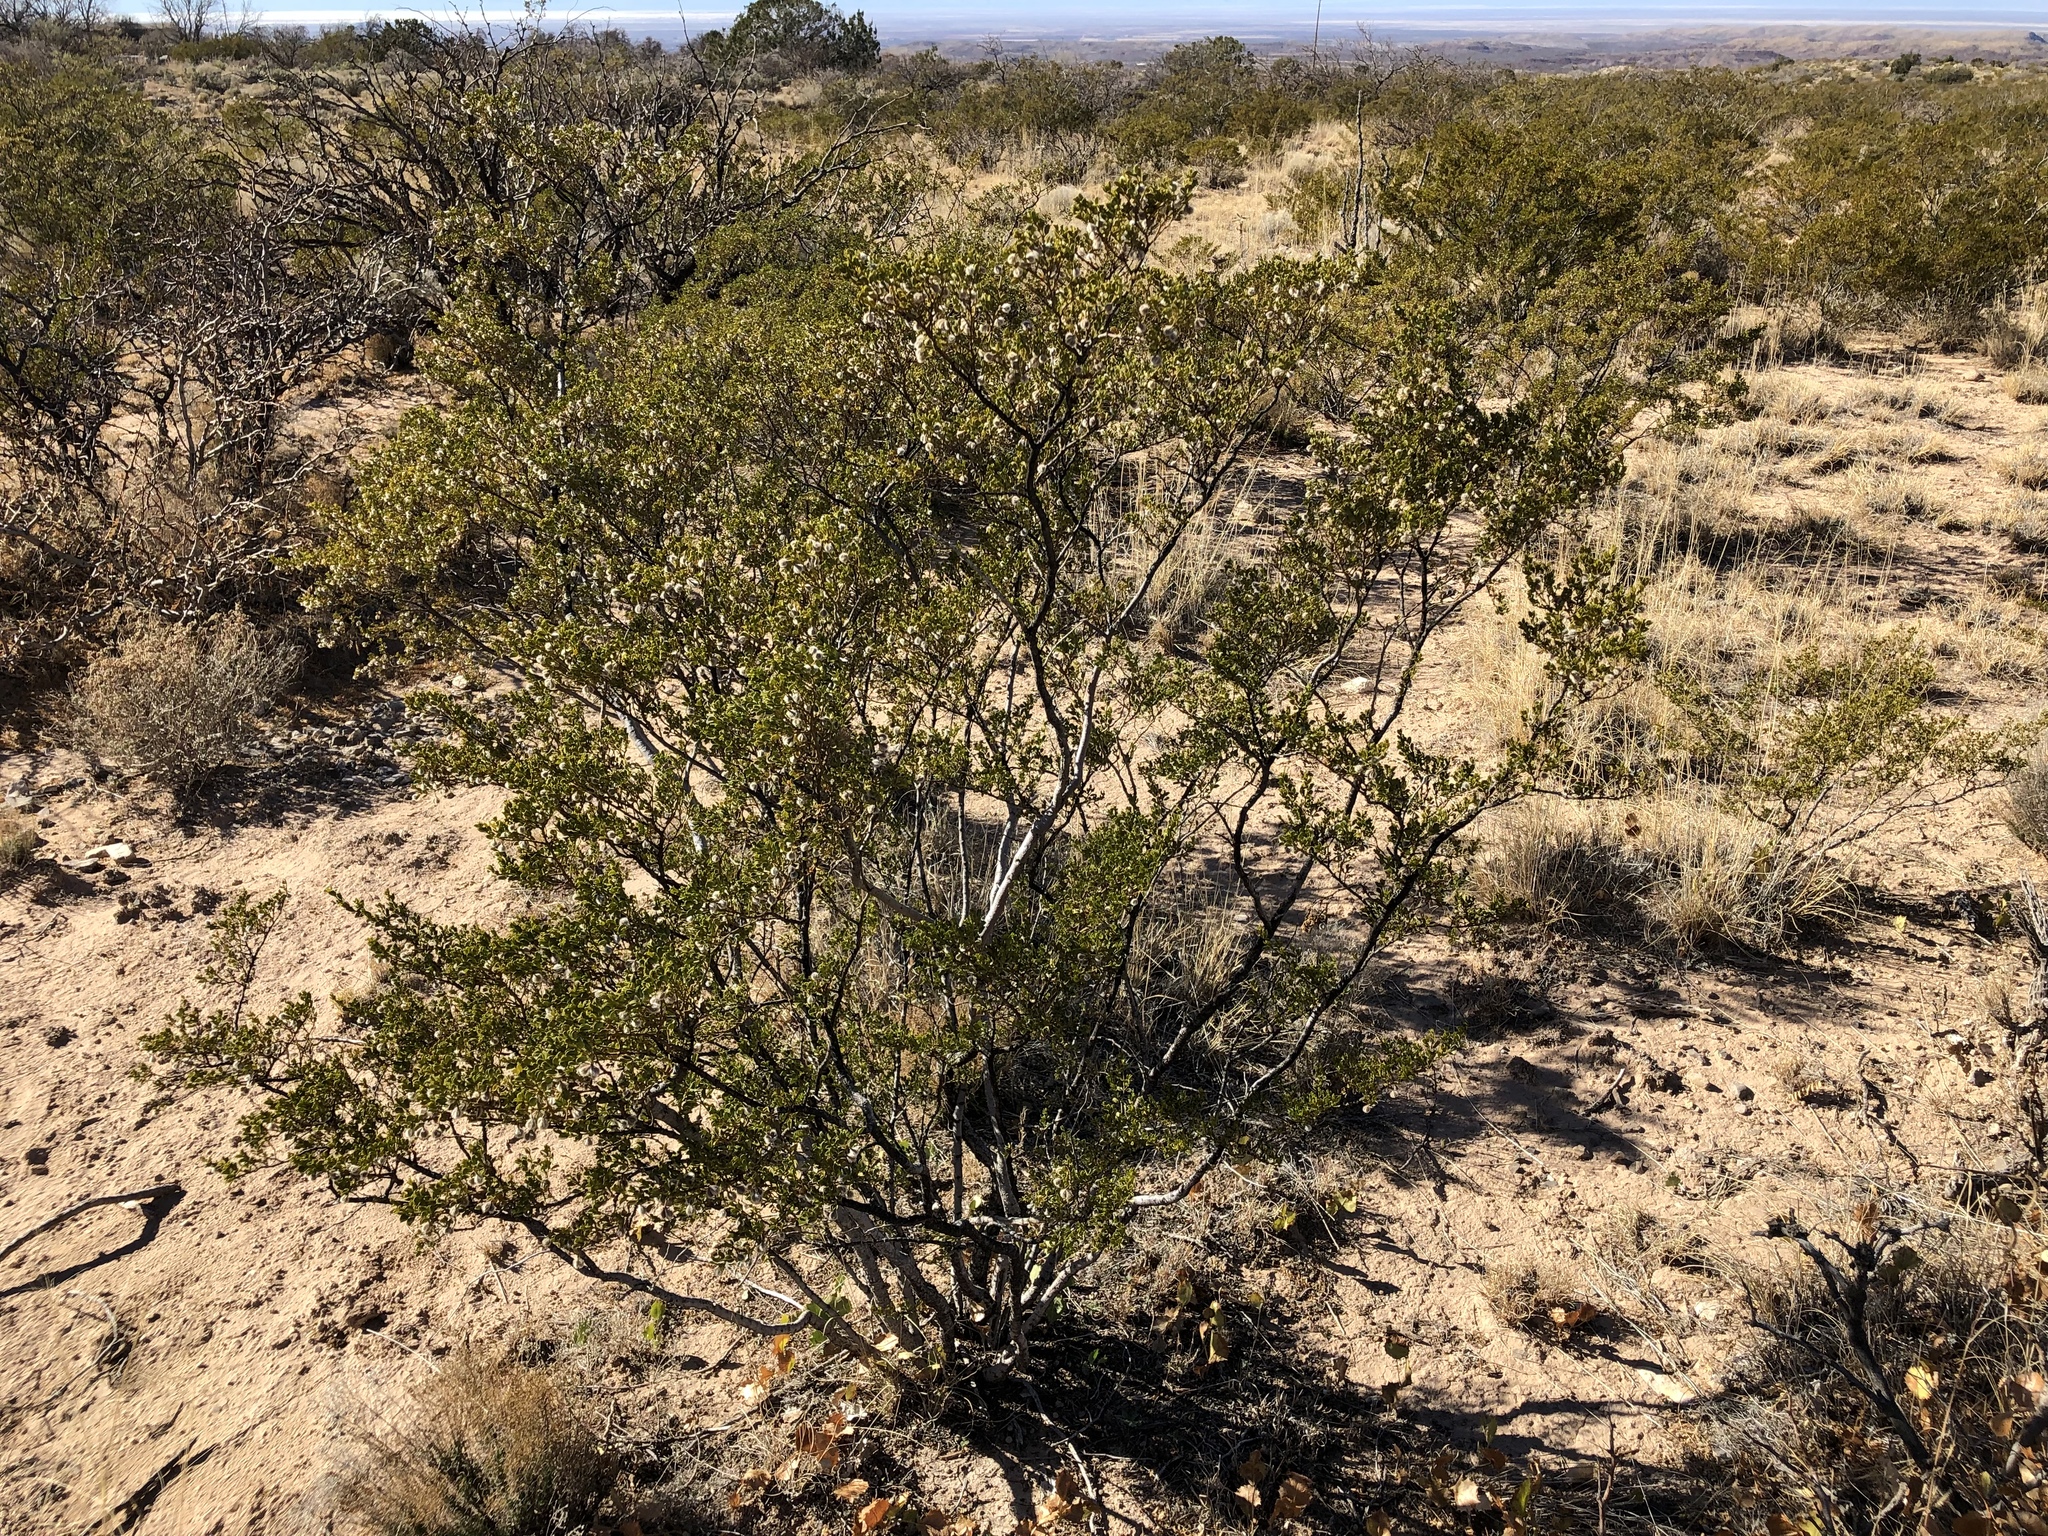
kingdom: Plantae
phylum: Tracheophyta
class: Magnoliopsida
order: Zygophyllales
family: Zygophyllaceae
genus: Larrea
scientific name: Larrea tridentata
